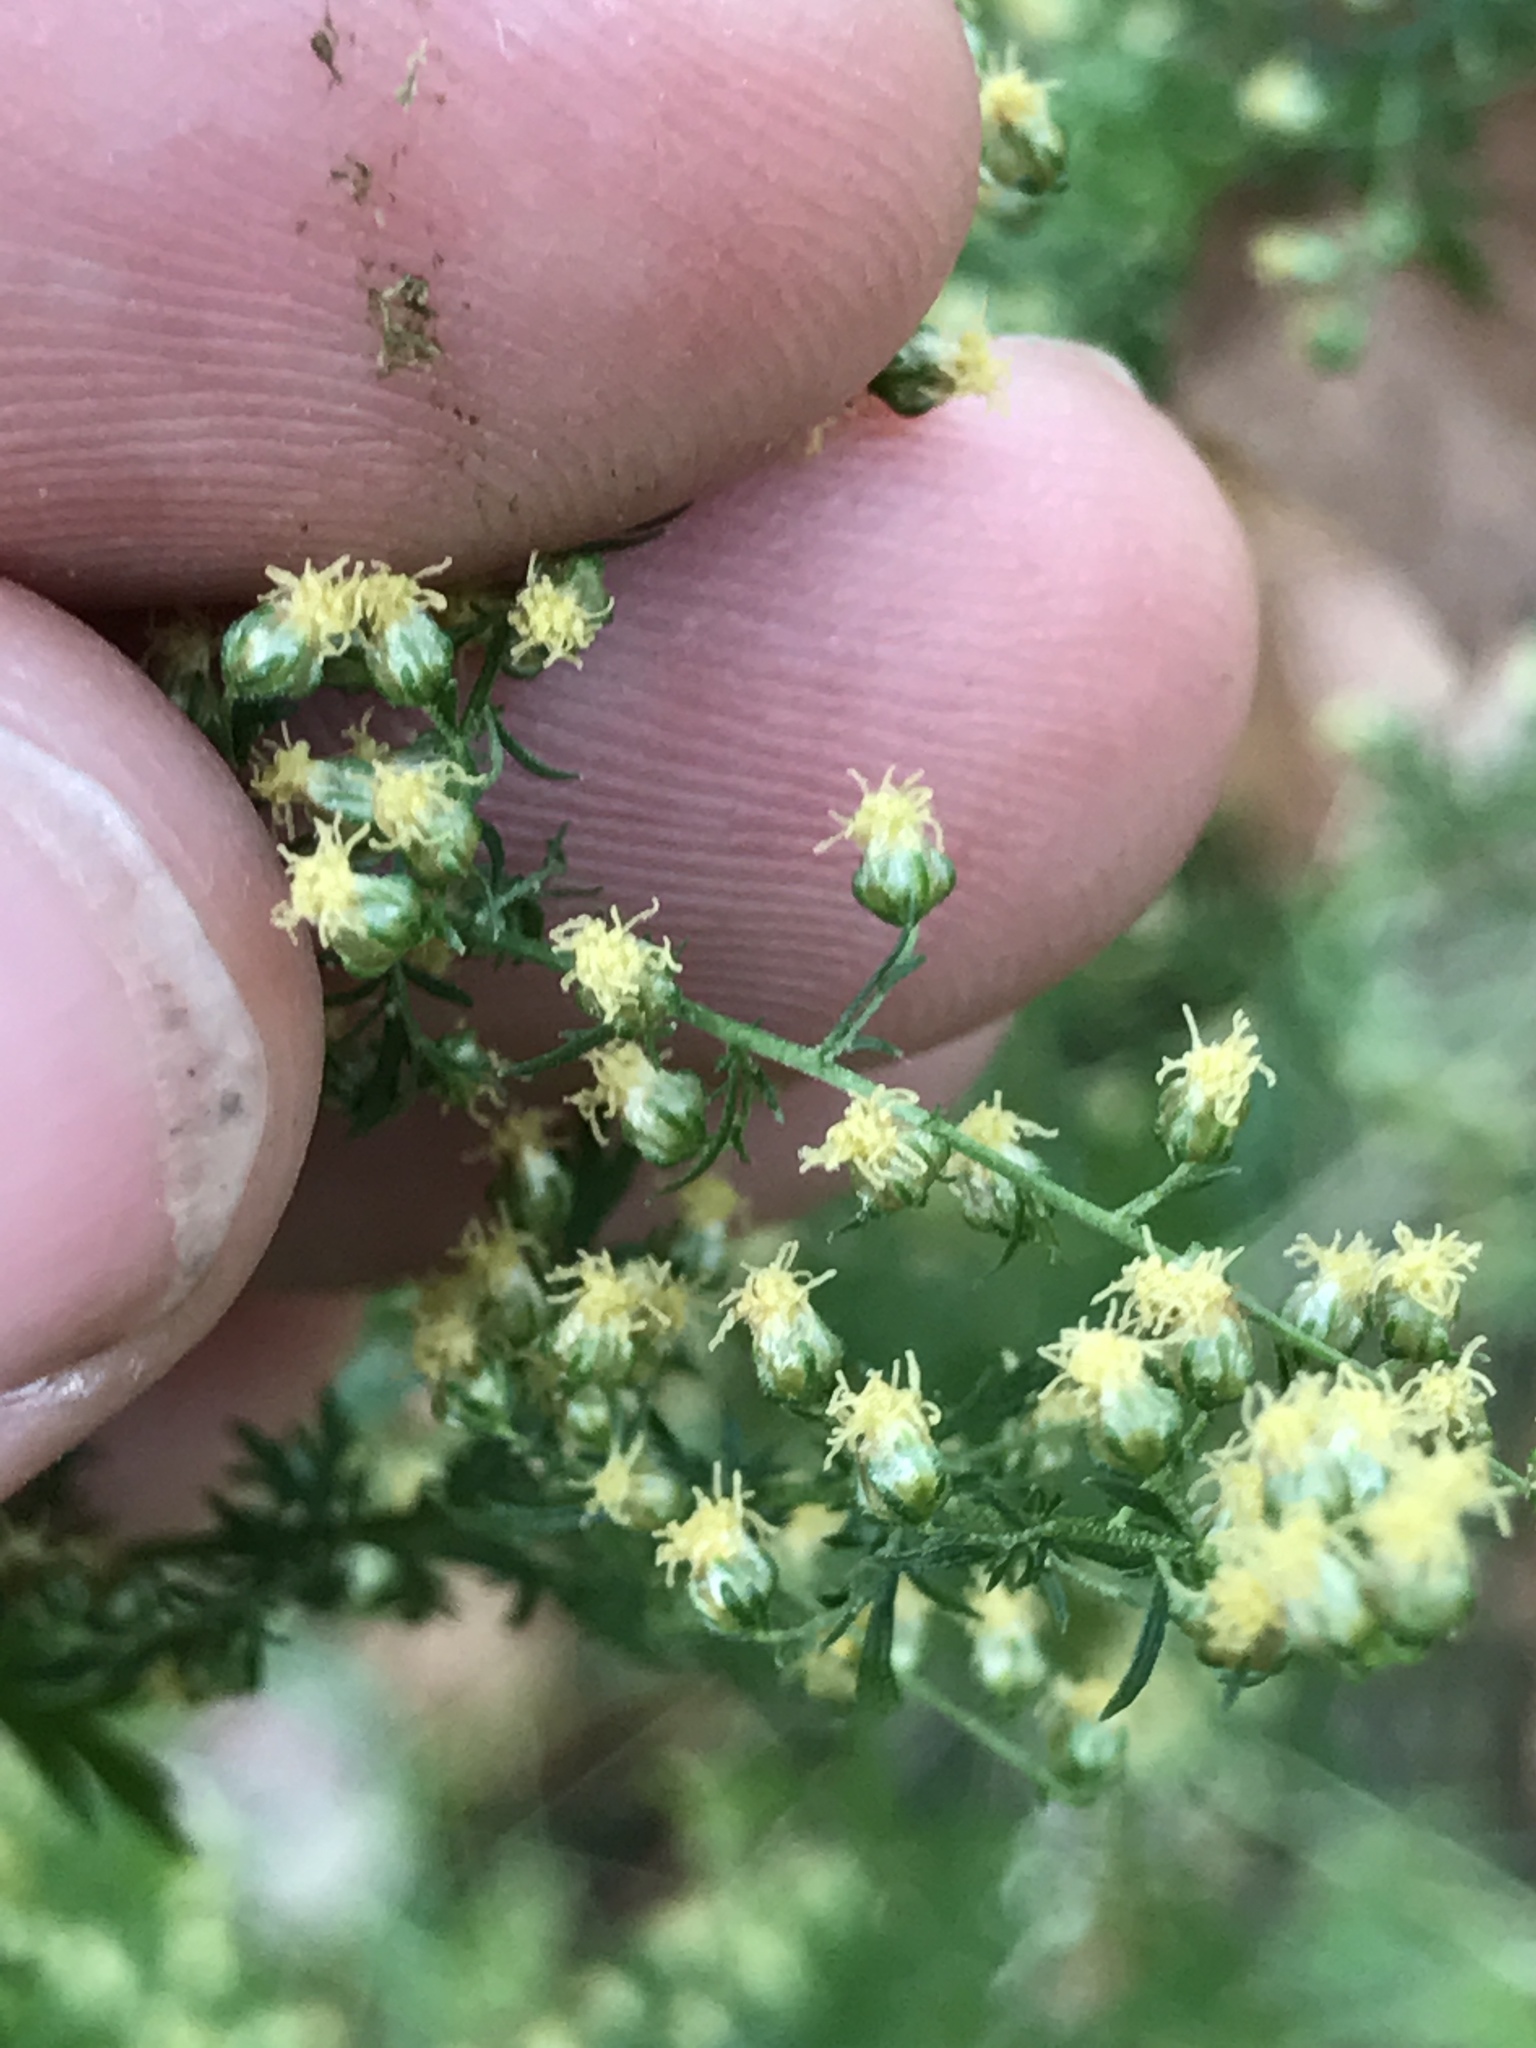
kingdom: Plantae
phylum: Tracheophyta
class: Magnoliopsida
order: Asterales
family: Asteraceae
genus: Artemisia
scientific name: Artemisia annua
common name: Sweet sagewort
